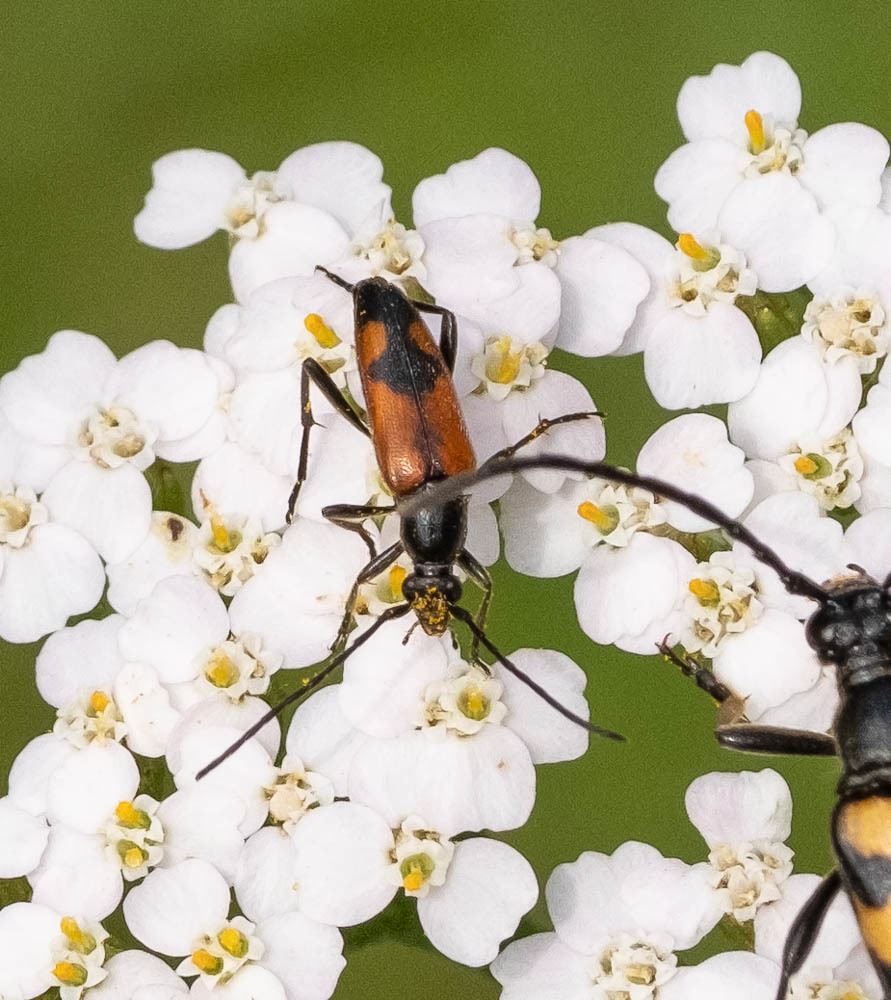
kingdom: Animalia
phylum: Arthropoda
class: Insecta
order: Coleoptera
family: Cerambycidae
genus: Stenurella
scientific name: Stenurella bifasciata
